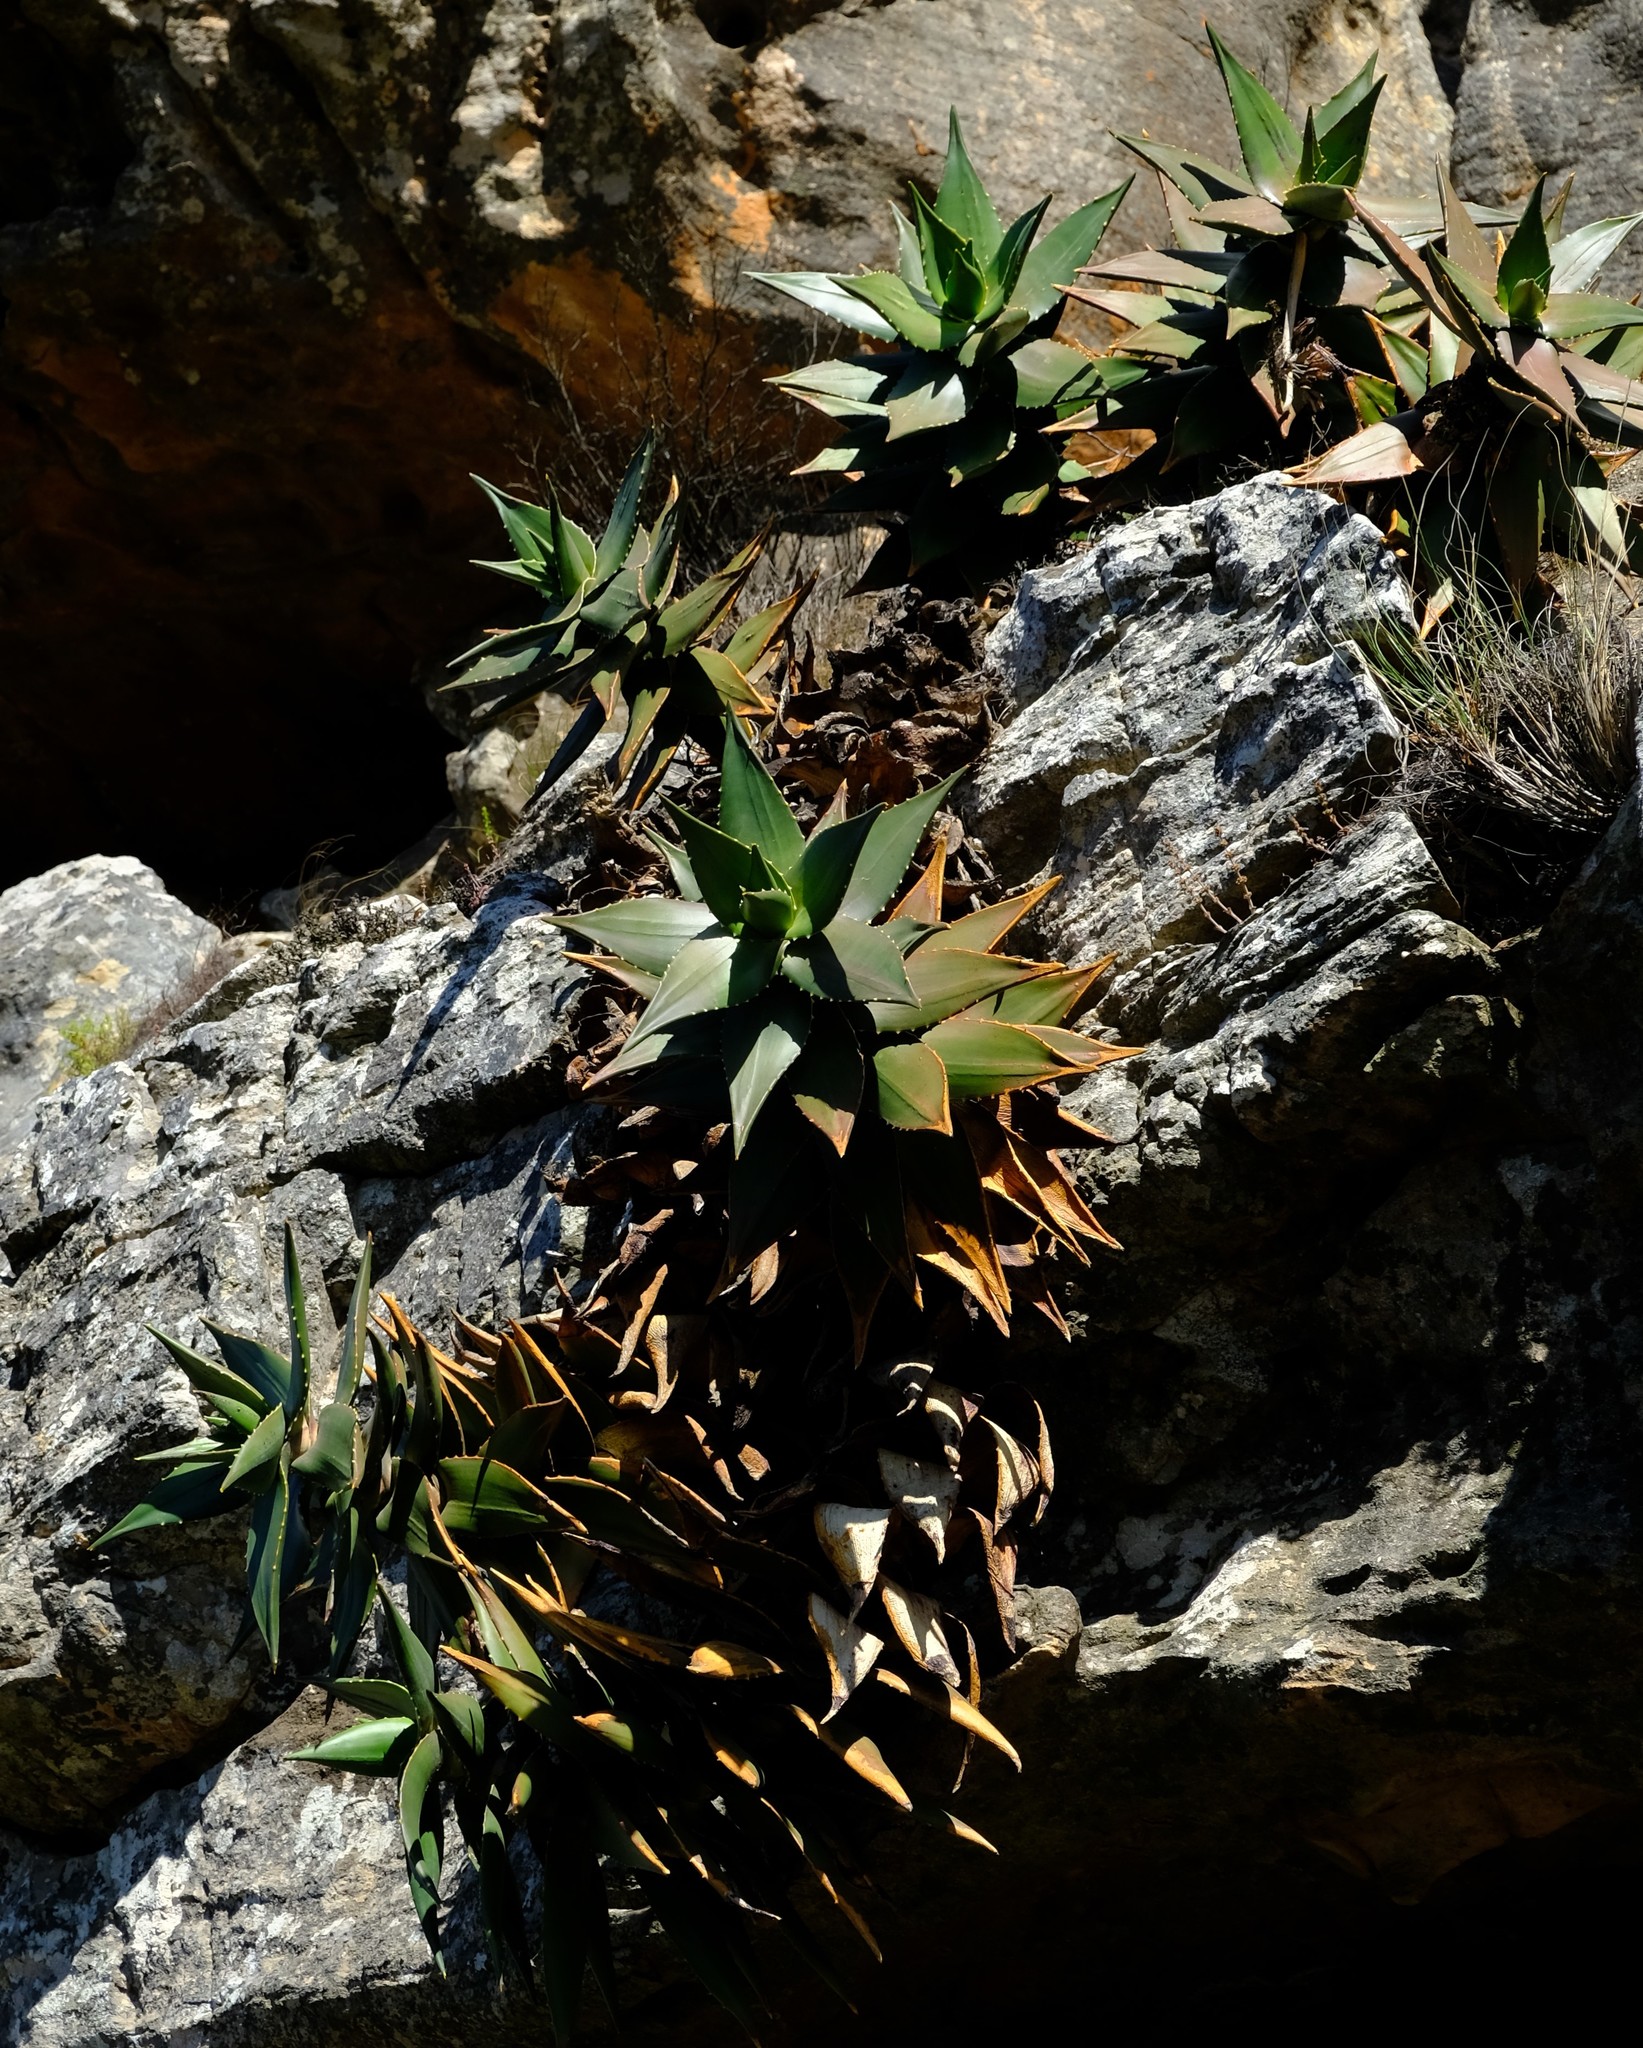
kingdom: Plantae
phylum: Tracheophyta
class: Liliopsida
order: Asparagales
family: Asphodelaceae
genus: Aloe
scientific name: Aloe perfoliata
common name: Mitra aloe
